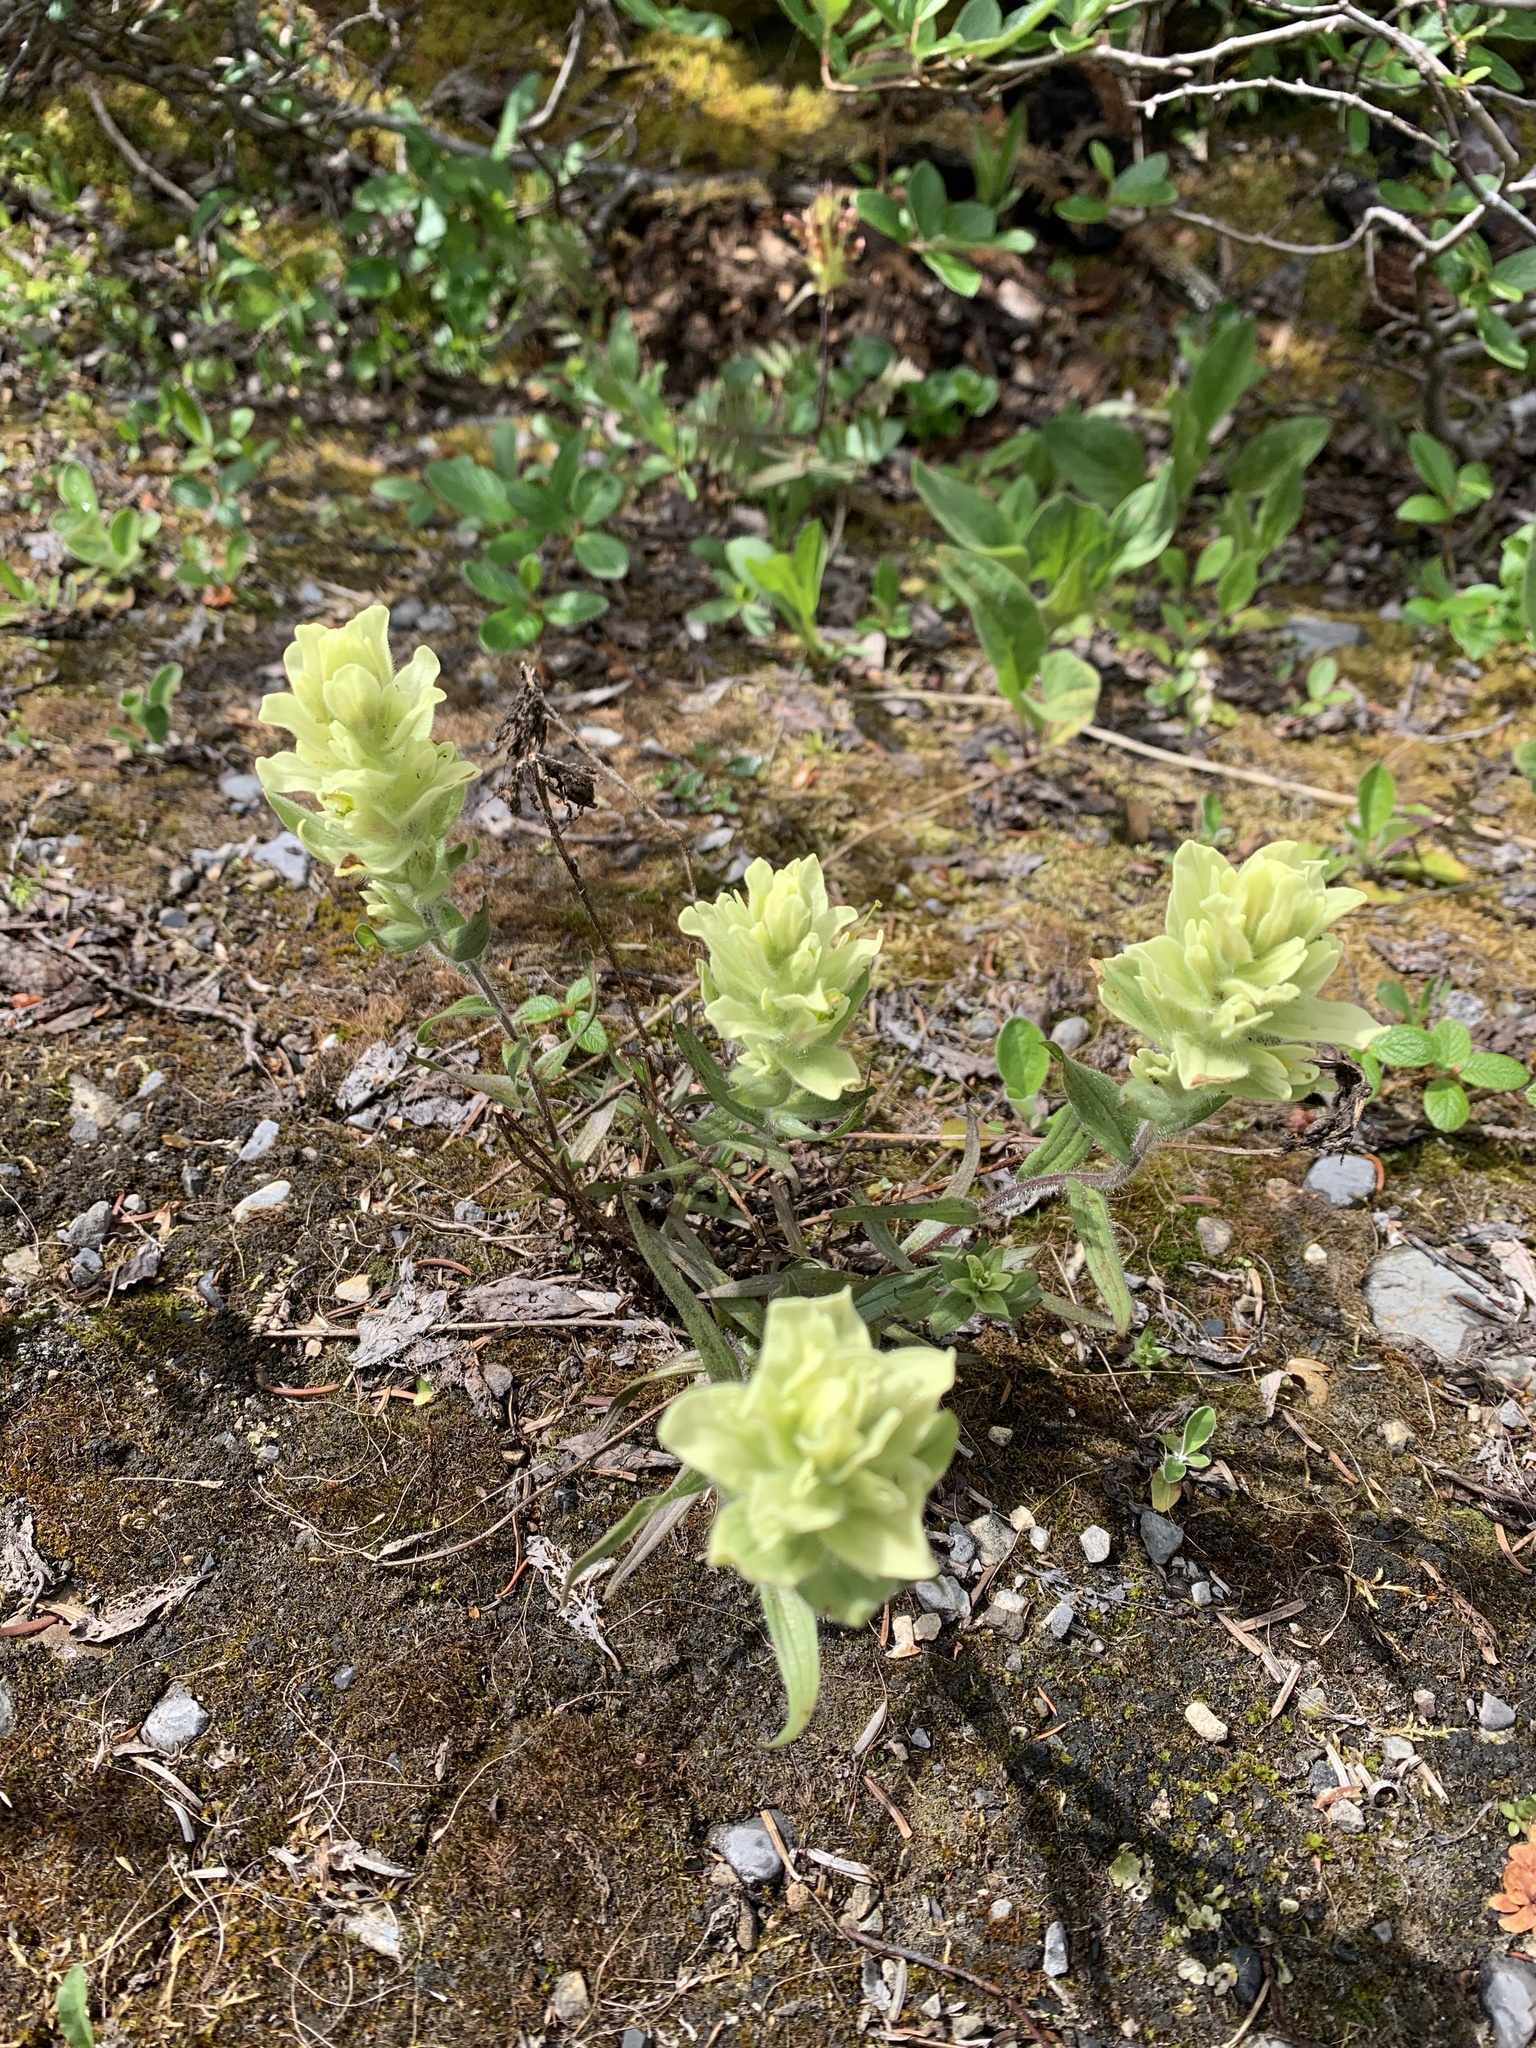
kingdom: Plantae
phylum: Tracheophyta
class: Magnoliopsida
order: Lamiales
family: Orobanchaceae
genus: Castilleja
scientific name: Castilleja occidentalis
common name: Western paintbrush
